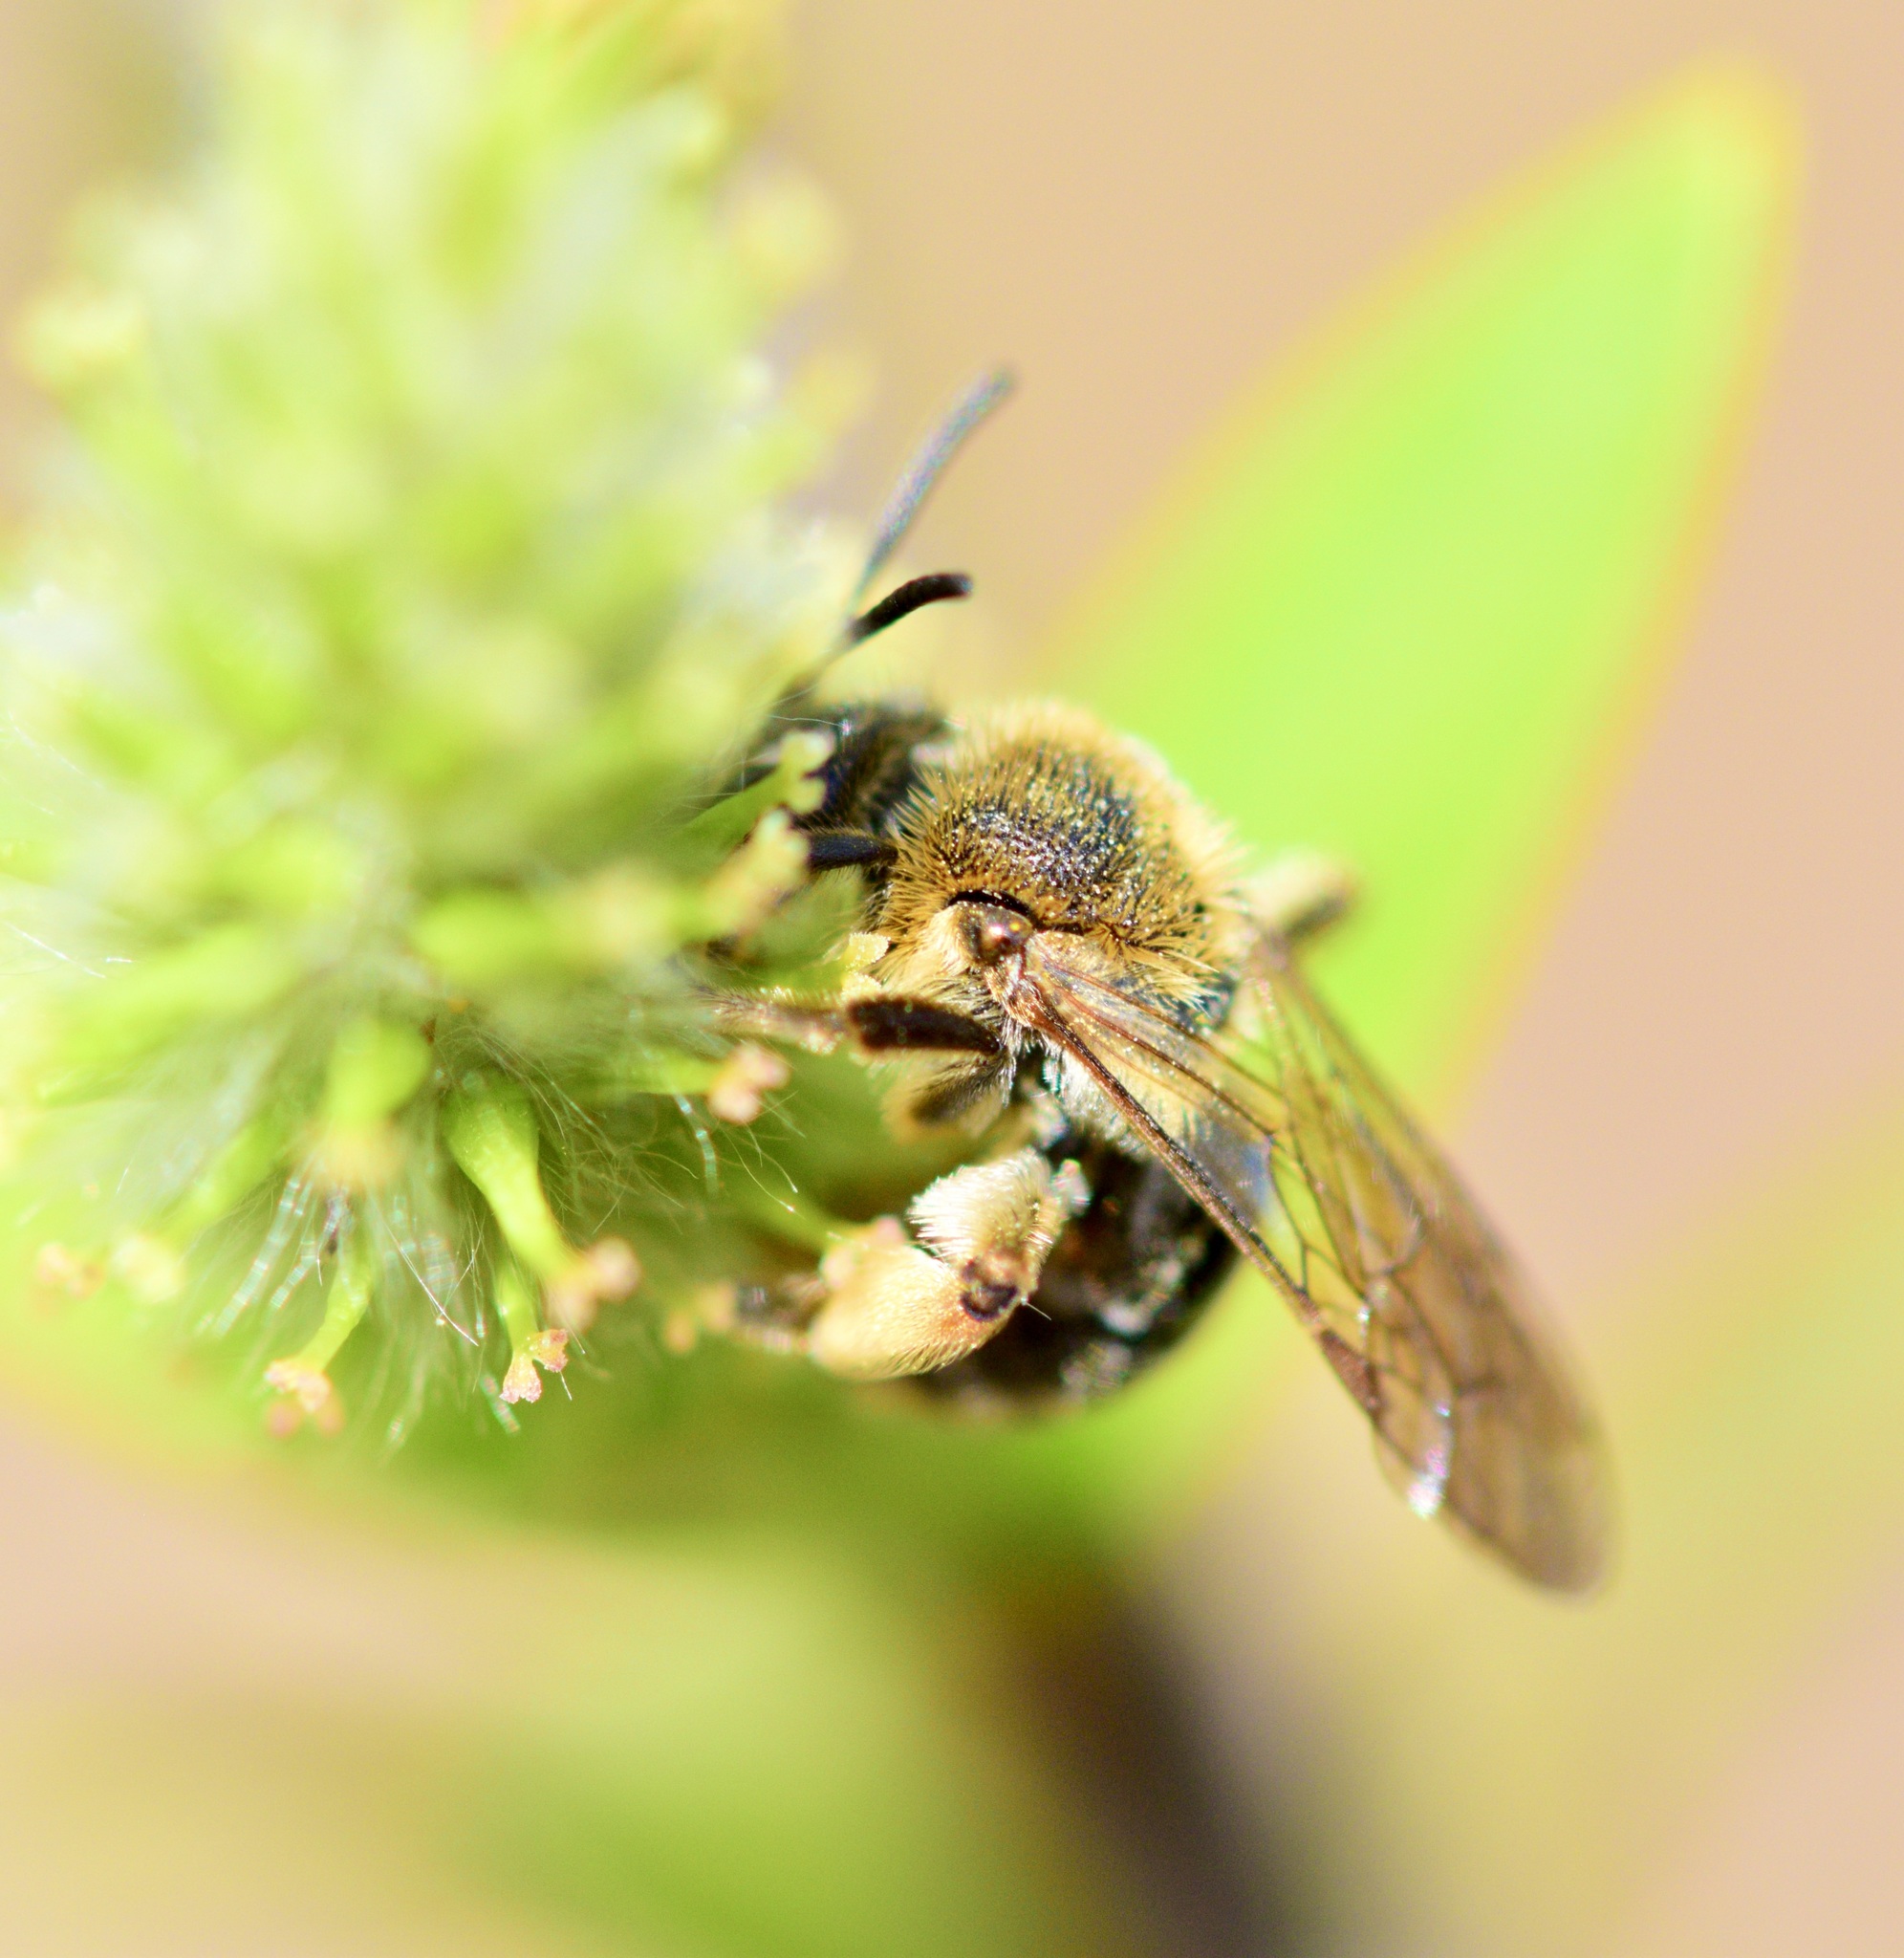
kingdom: Animalia
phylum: Arthropoda
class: Insecta
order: Hymenoptera
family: Andrenidae
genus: Andrena
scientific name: Andrena rugosa
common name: Rugose mining bee
